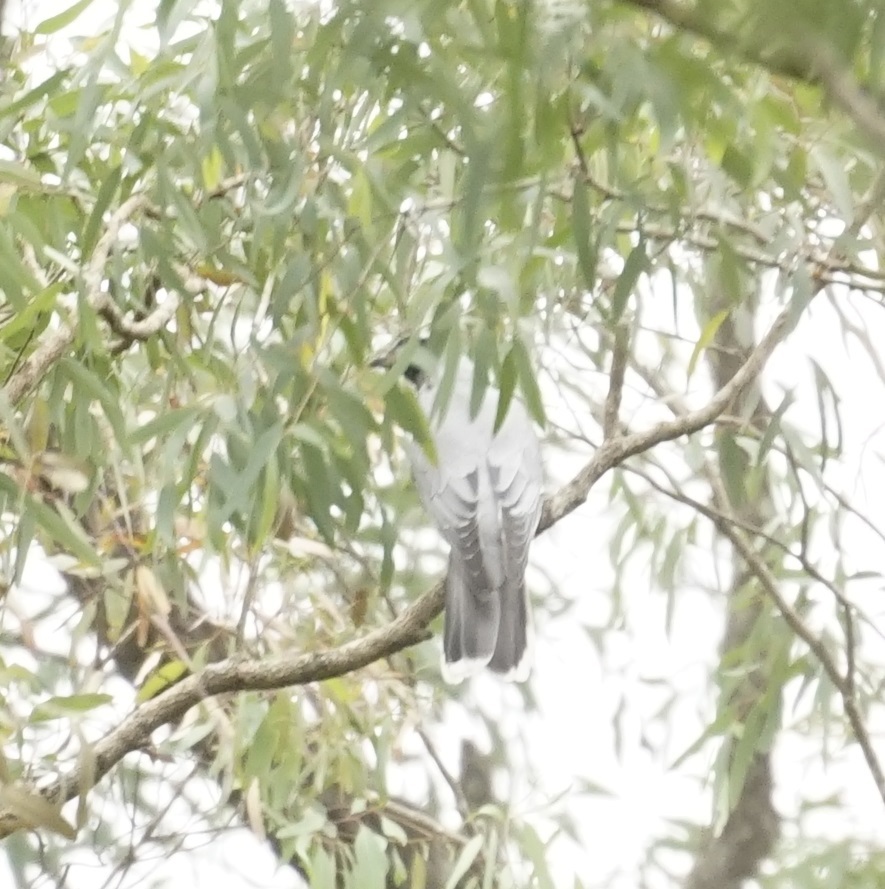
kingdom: Animalia
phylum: Chordata
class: Aves
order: Passeriformes
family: Campephagidae
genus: Coracina
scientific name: Coracina novaehollandiae
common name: Black-faced cuckooshrike
